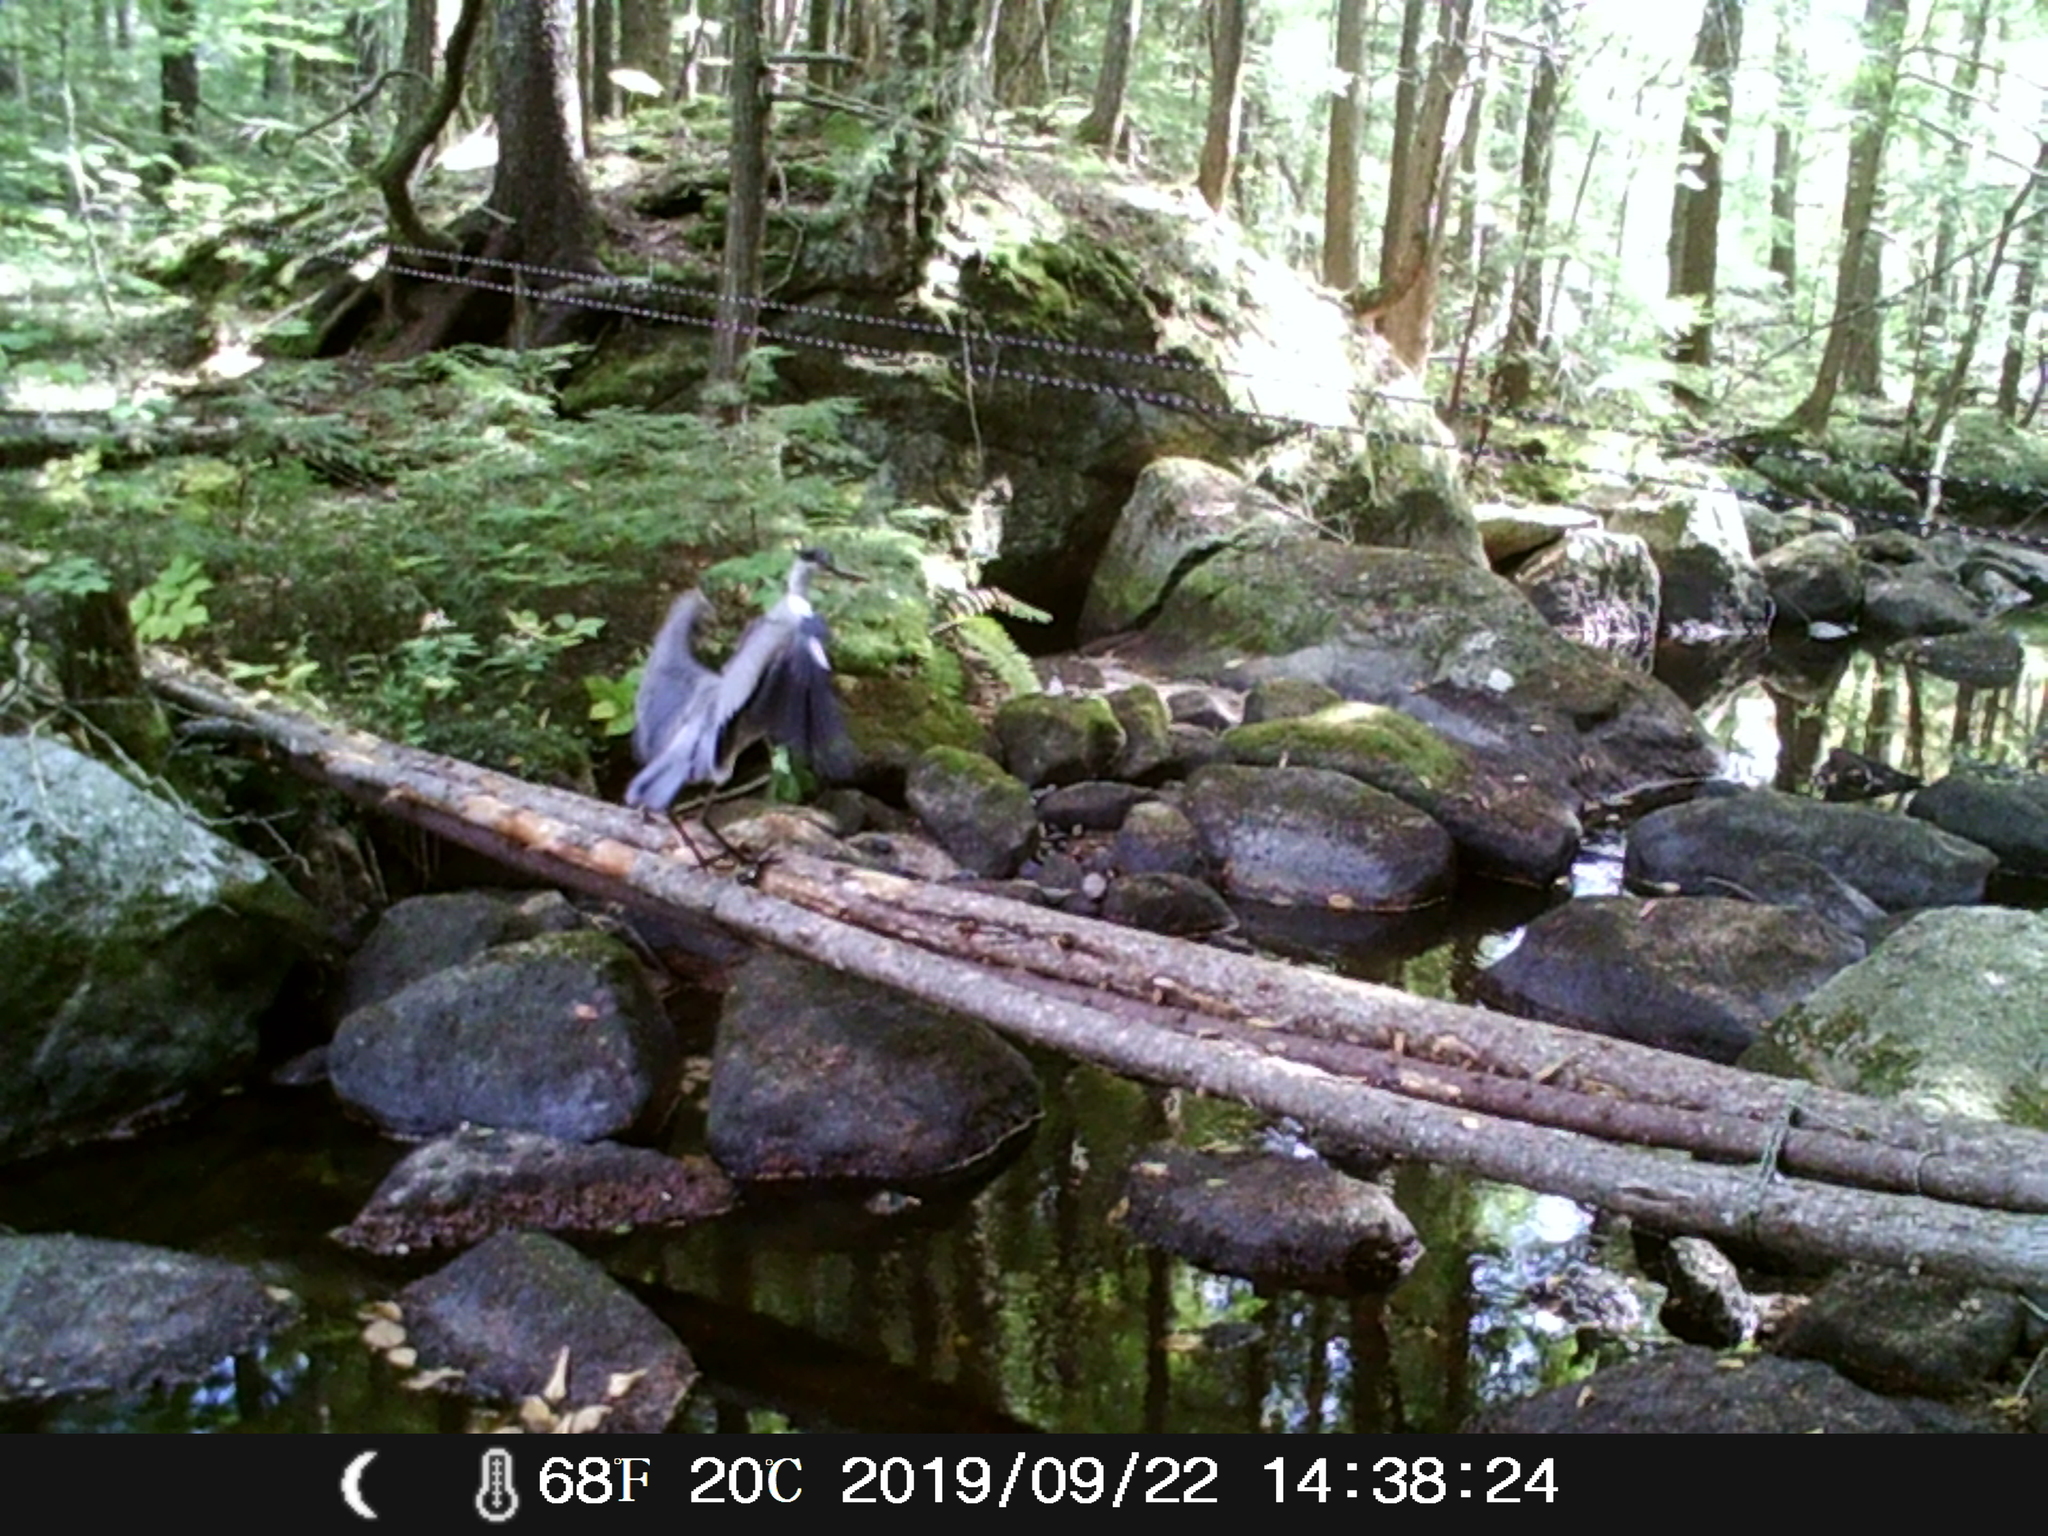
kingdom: Animalia
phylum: Chordata
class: Aves
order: Pelecaniformes
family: Ardeidae
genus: Ardea
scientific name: Ardea herodias
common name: Great blue heron
